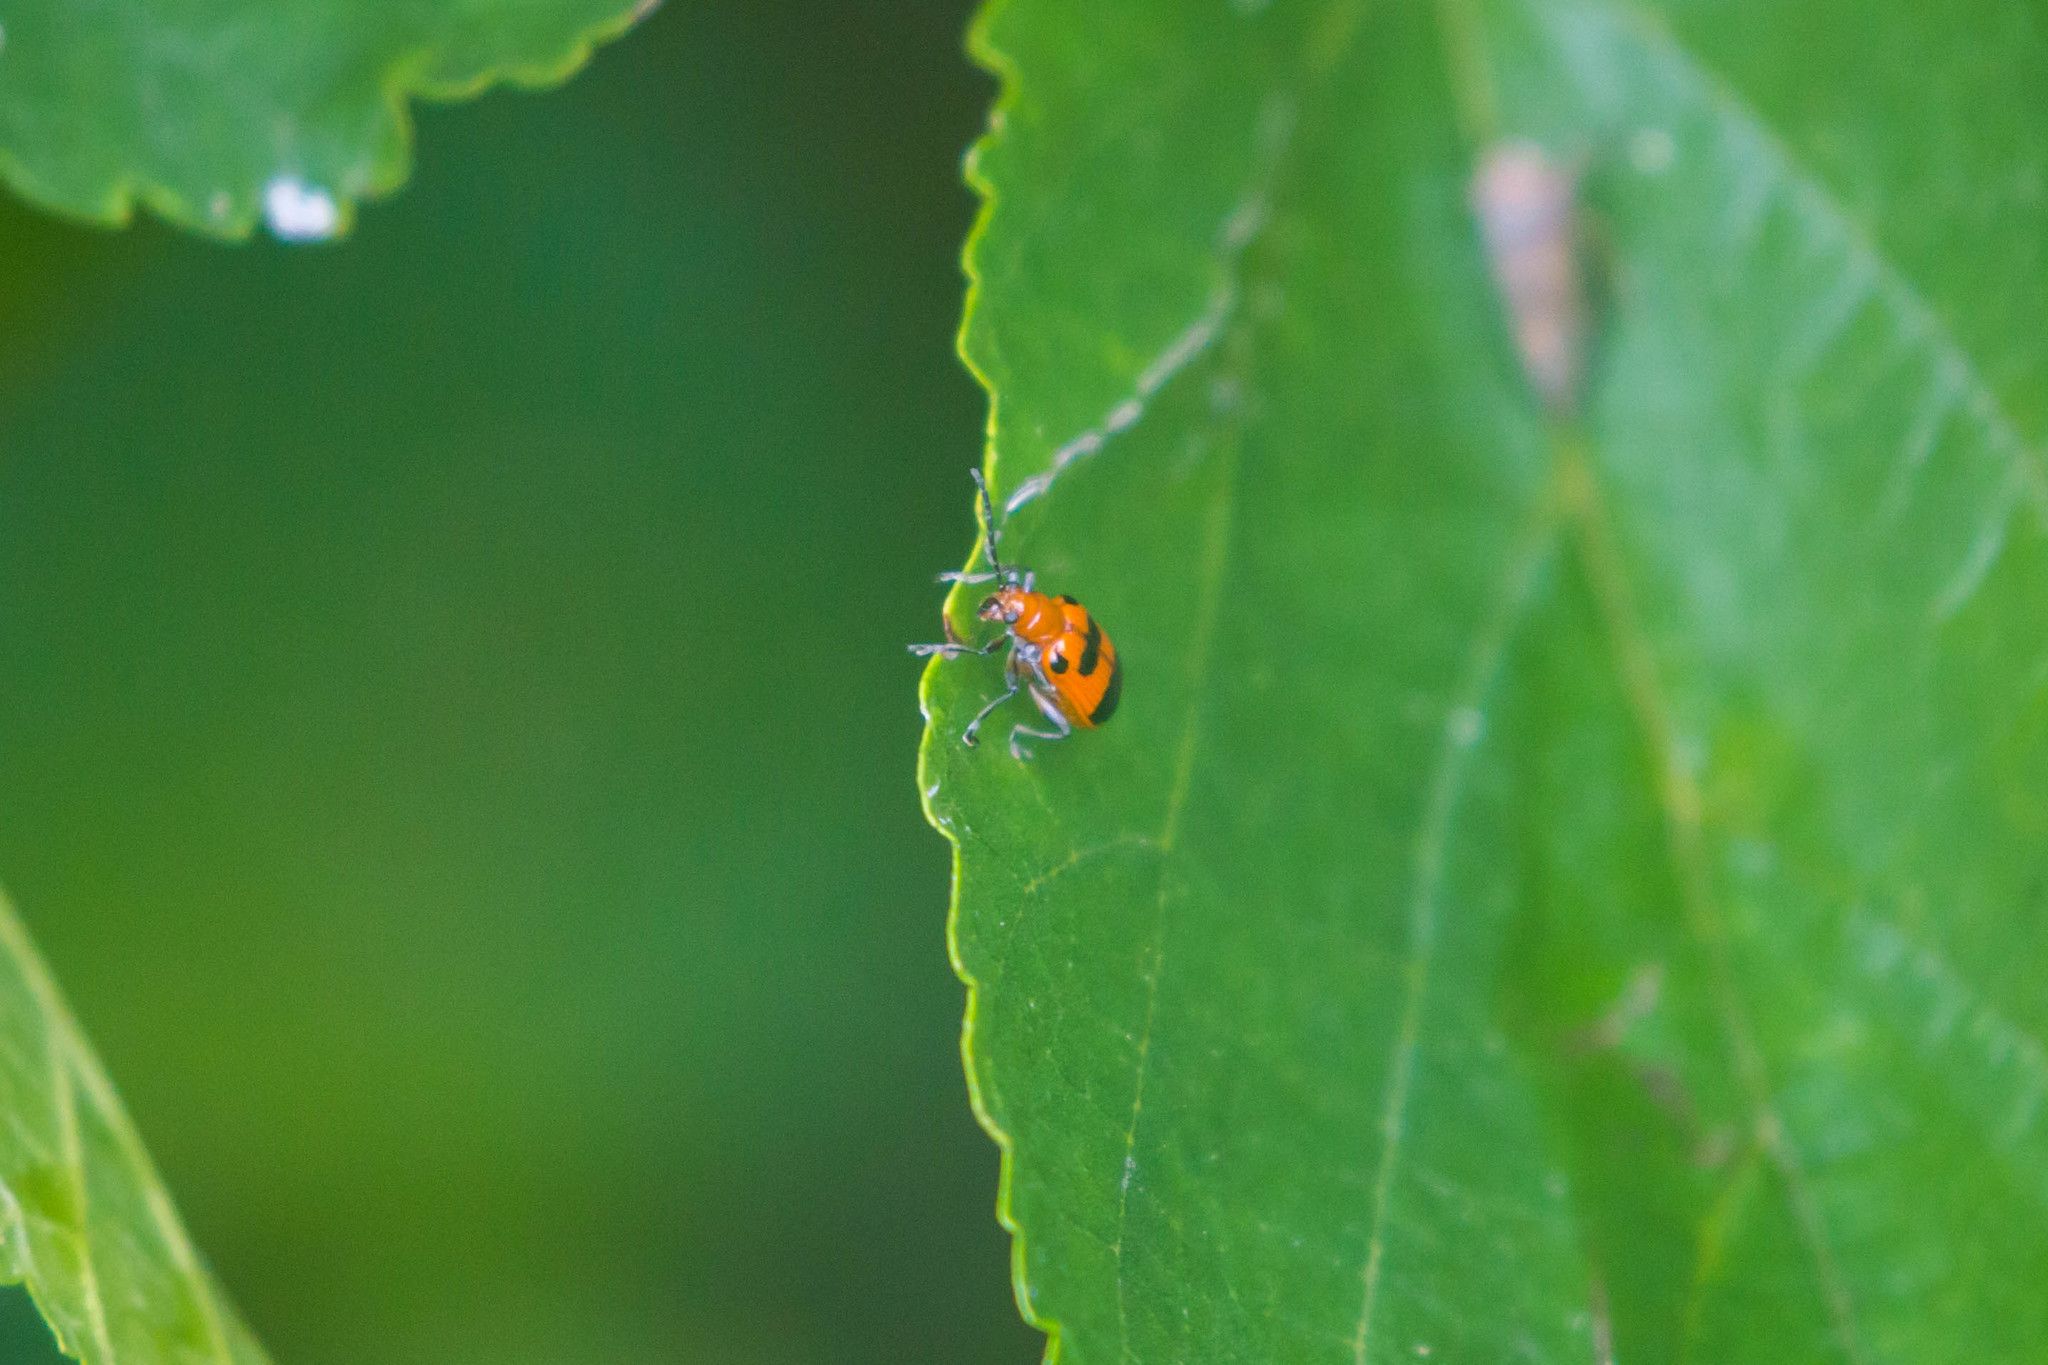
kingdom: Animalia
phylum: Arthropoda
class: Insecta
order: Coleoptera
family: Chrysomelidae
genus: Neolema
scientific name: Neolema sexpunctata
